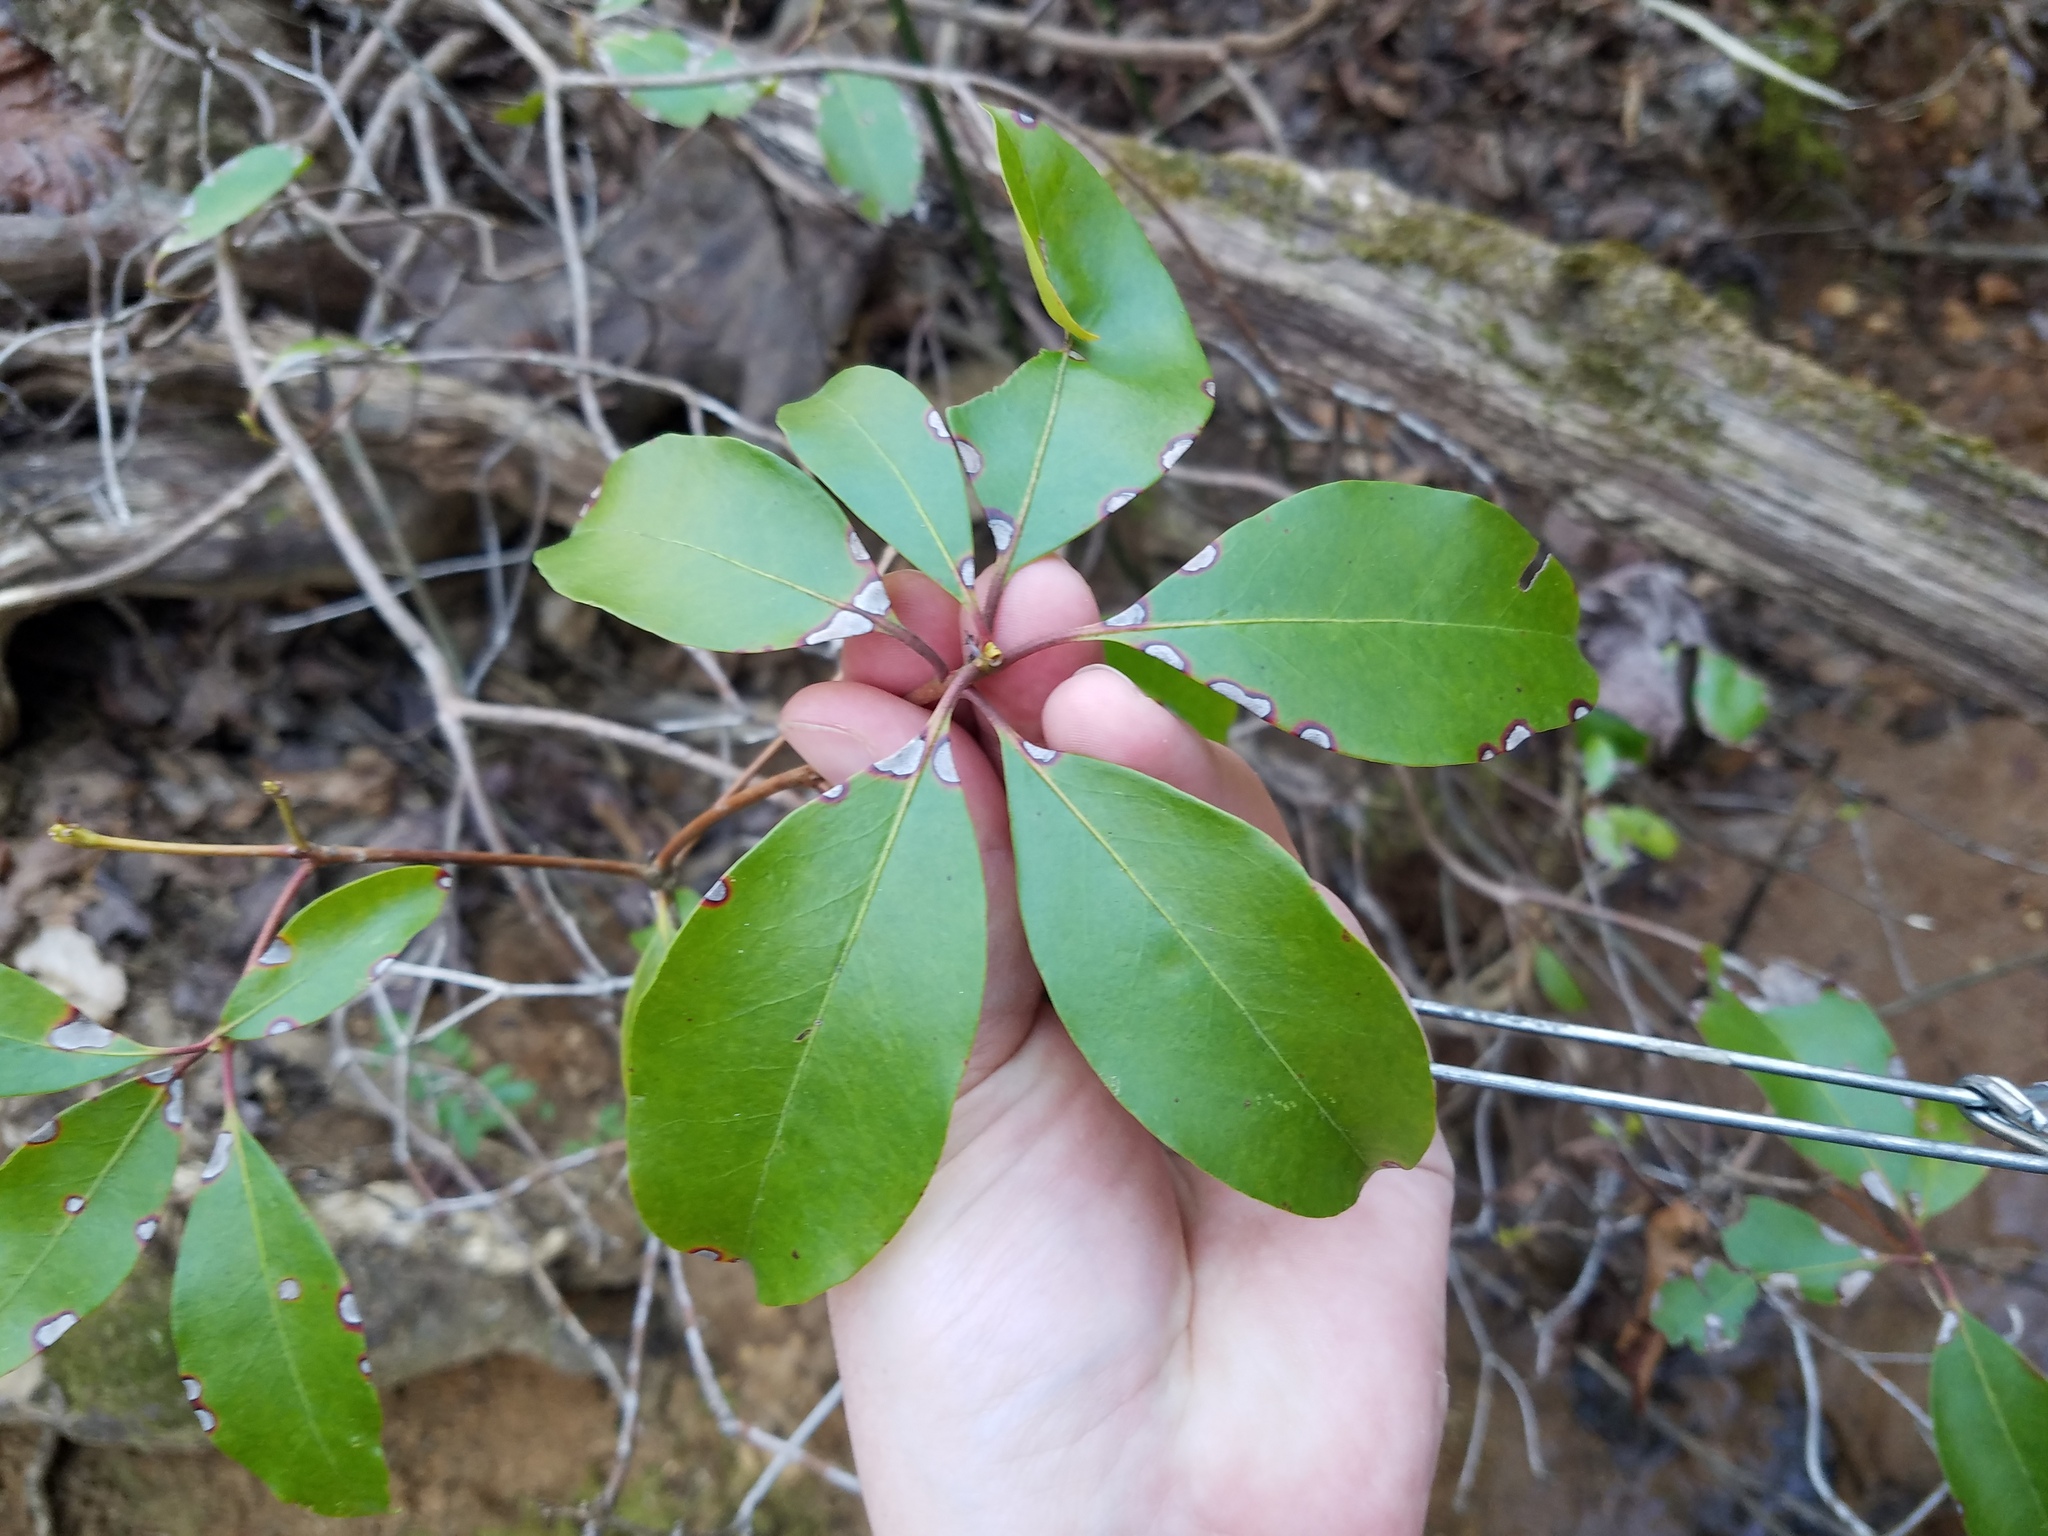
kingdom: Plantae
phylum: Tracheophyta
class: Magnoliopsida
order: Ericales
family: Ericaceae
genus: Kalmia
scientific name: Kalmia latifolia
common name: Mountain-laurel
